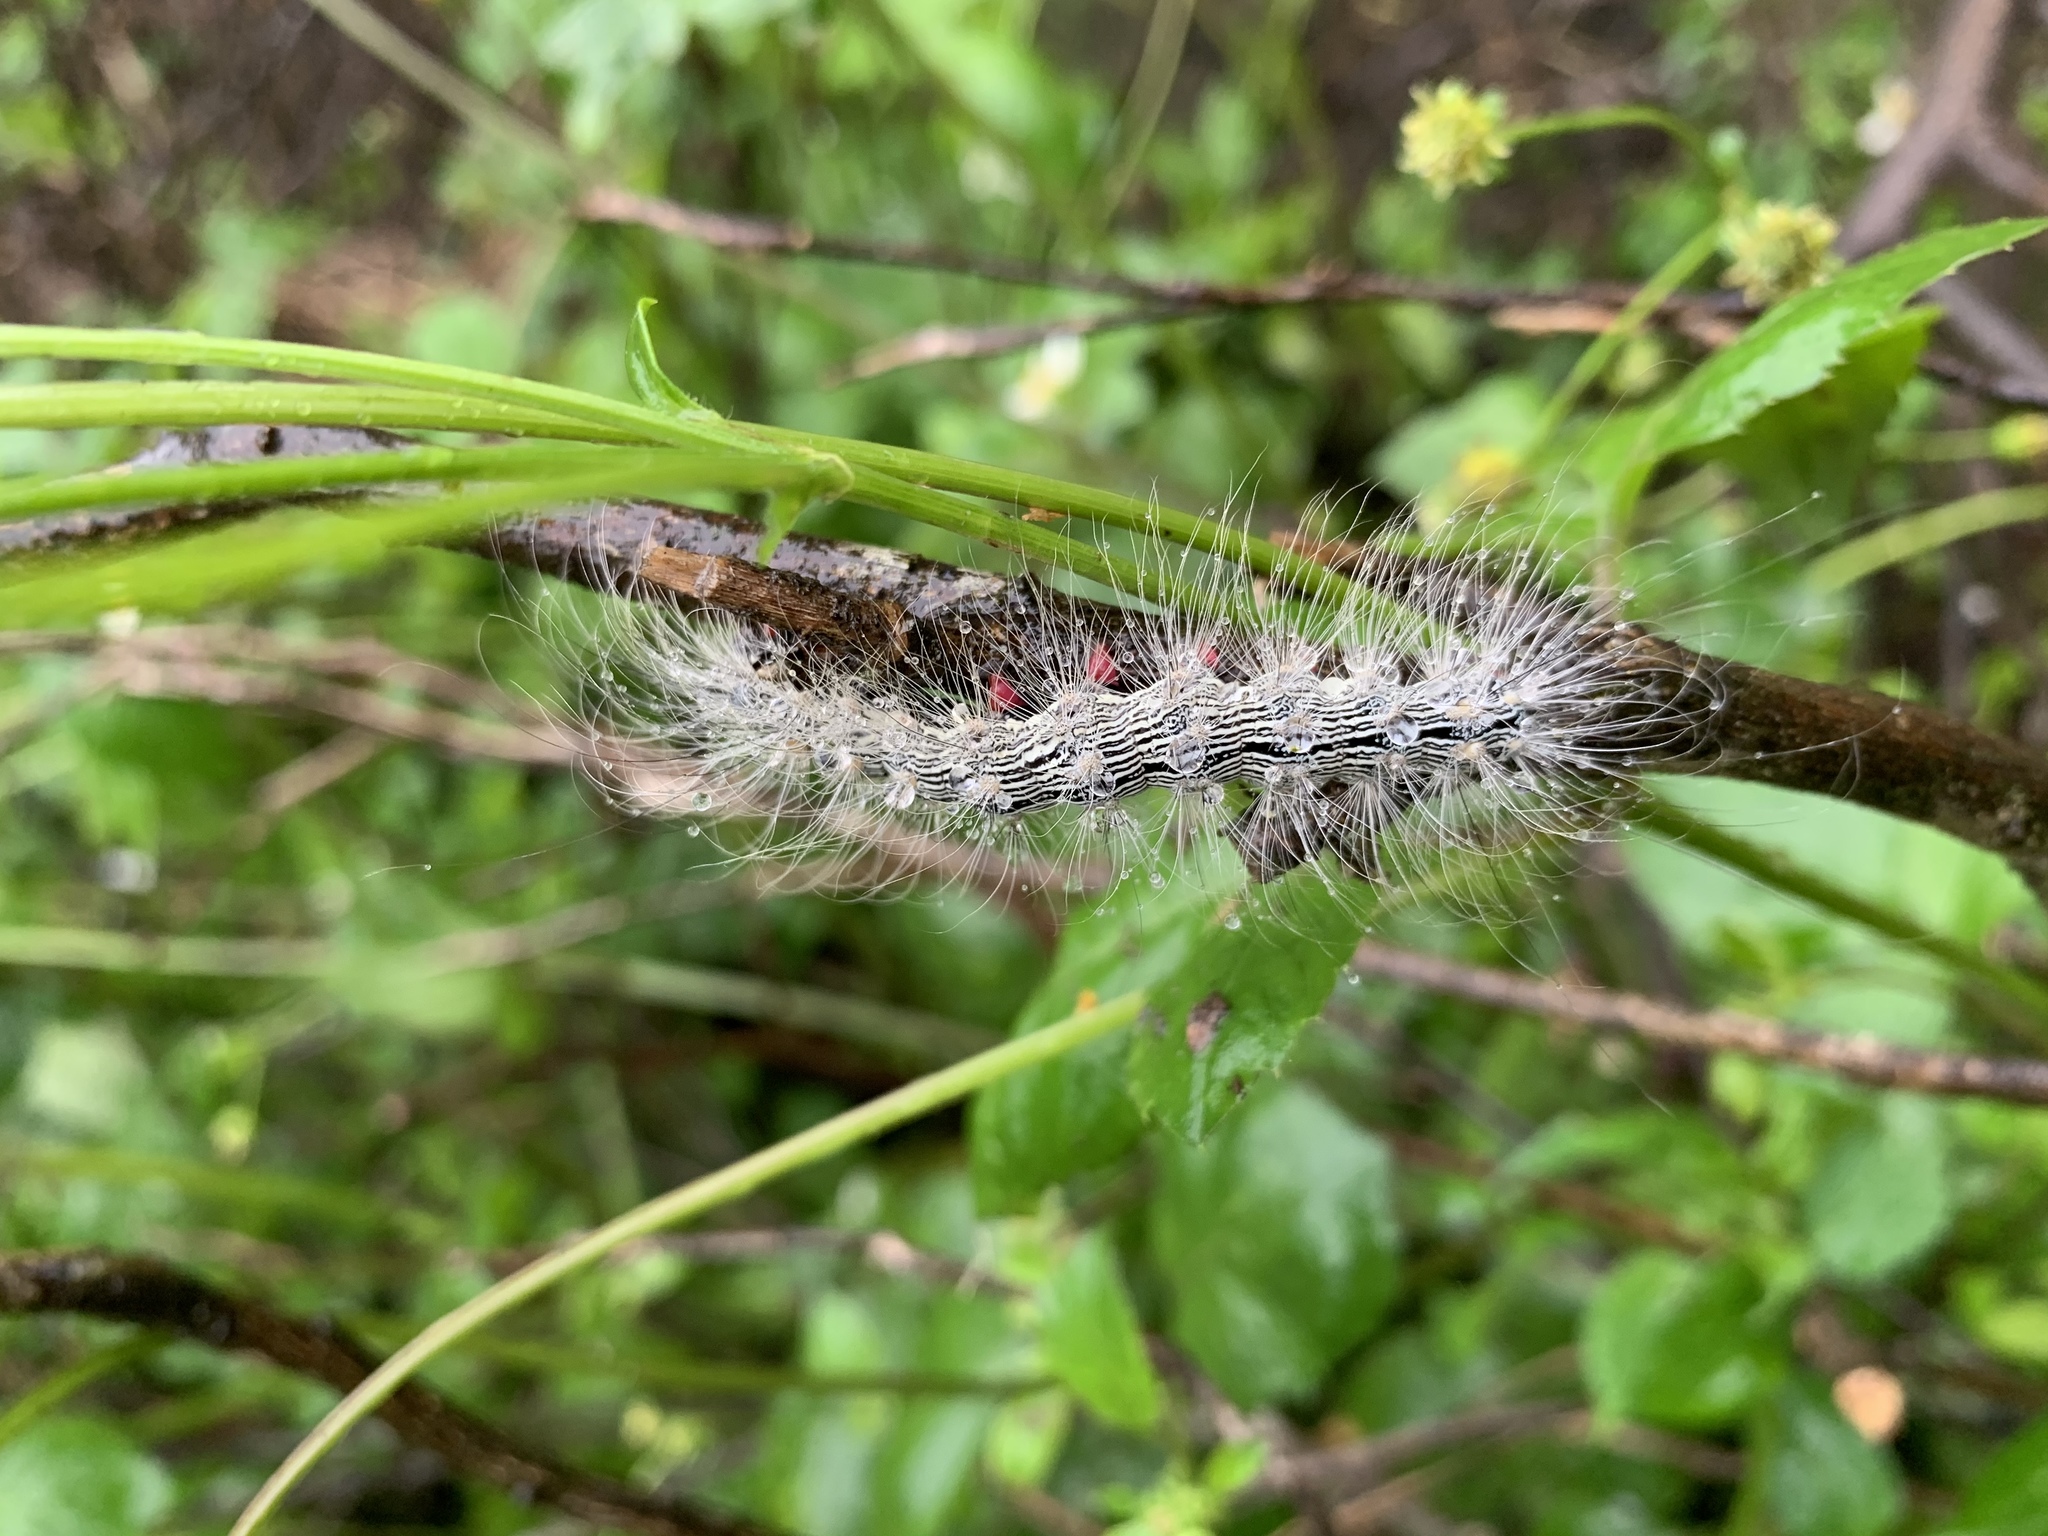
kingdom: Animalia
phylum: Arthropoda
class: Insecta
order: Lepidoptera
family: Erebidae
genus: Chrysaeglia
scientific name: Chrysaeglia magnifica
